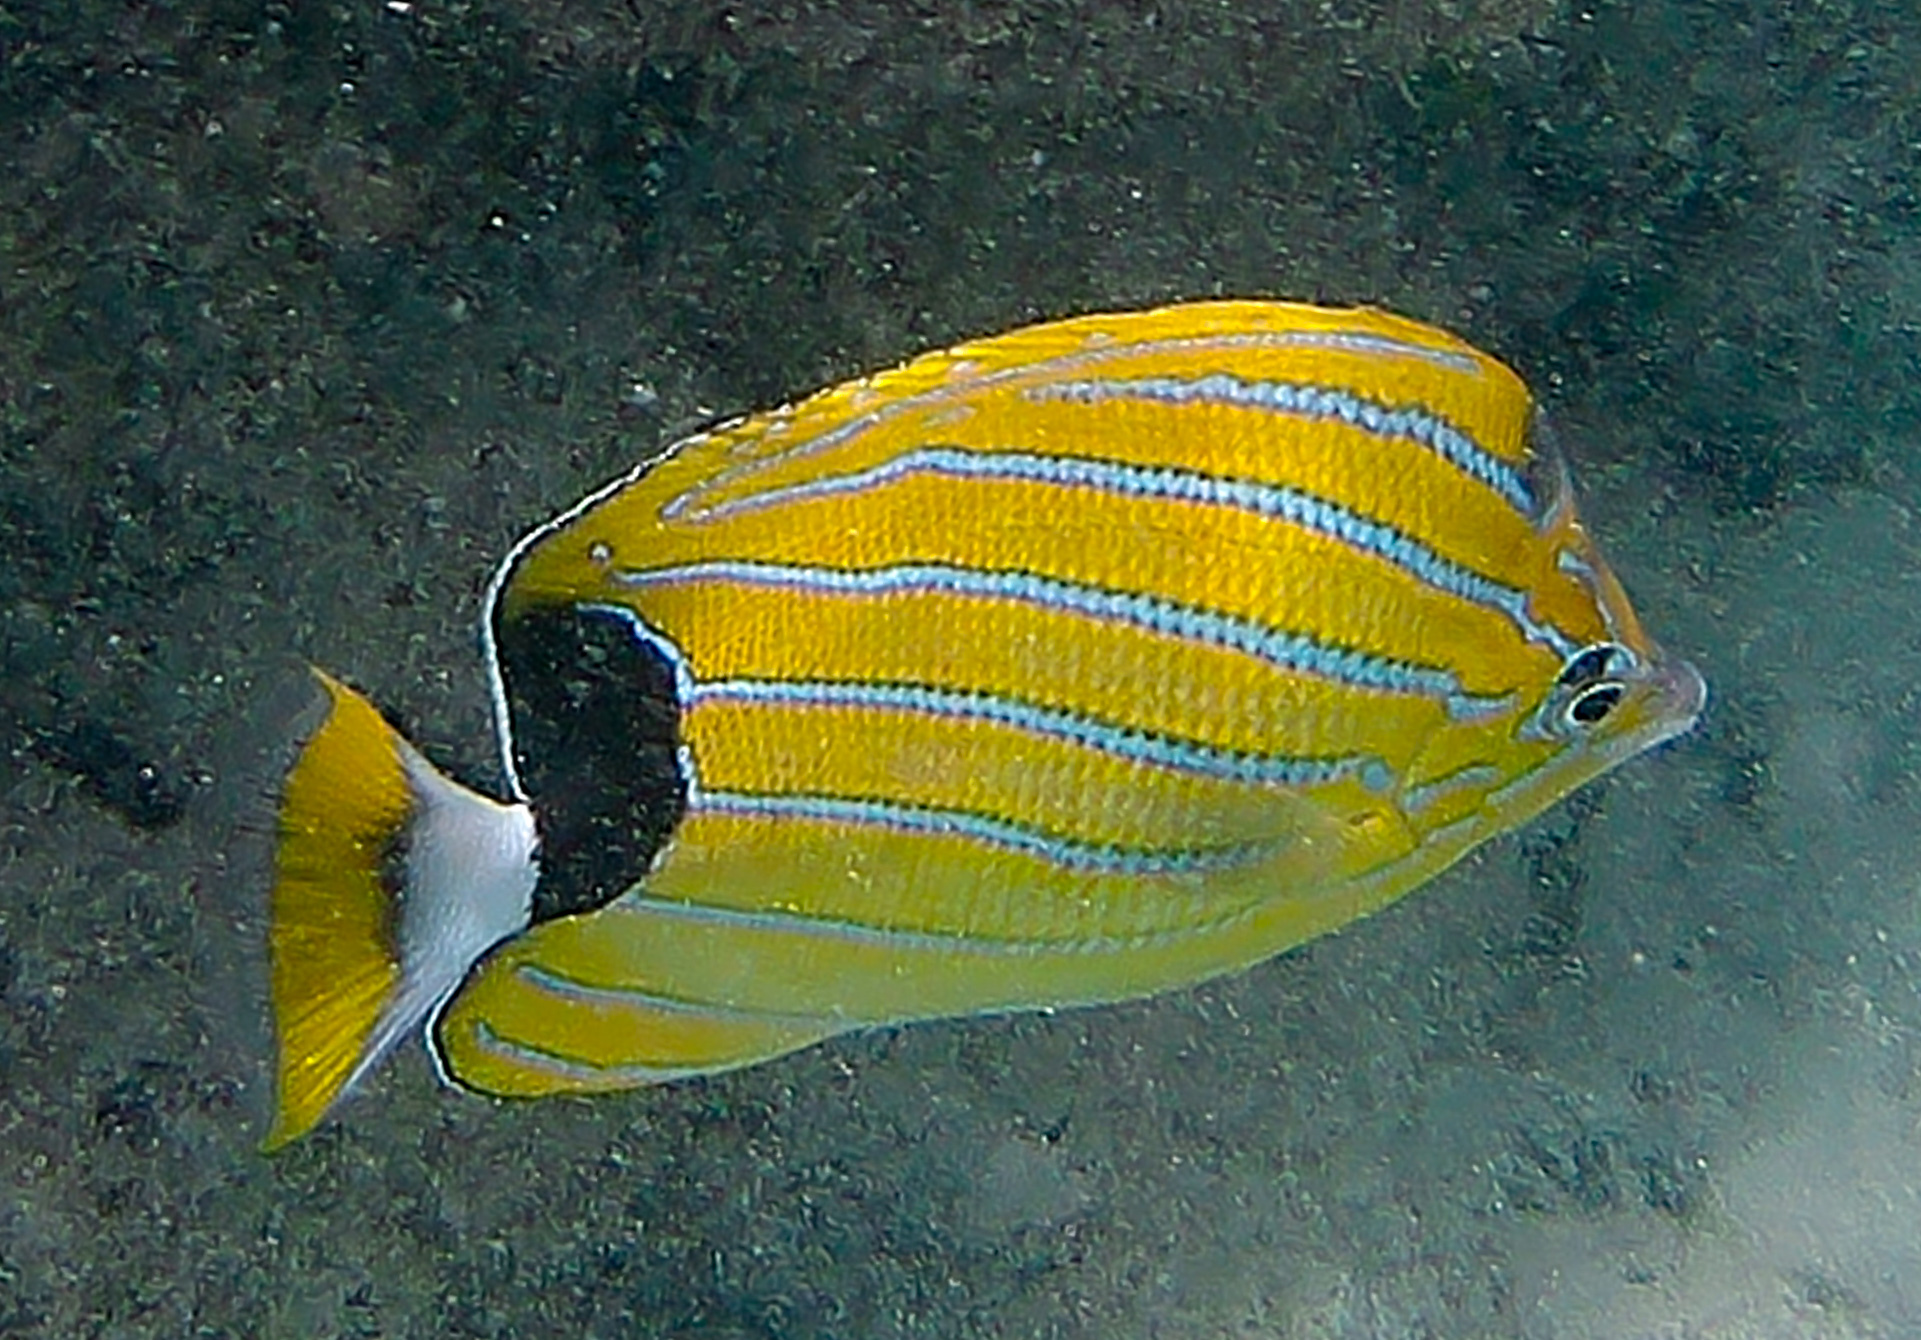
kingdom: Animalia
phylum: Chordata
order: Perciformes
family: Chaetodontidae
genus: Chaetodon
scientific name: Chaetodon fremblii
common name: Bluestriped butterflyfish
